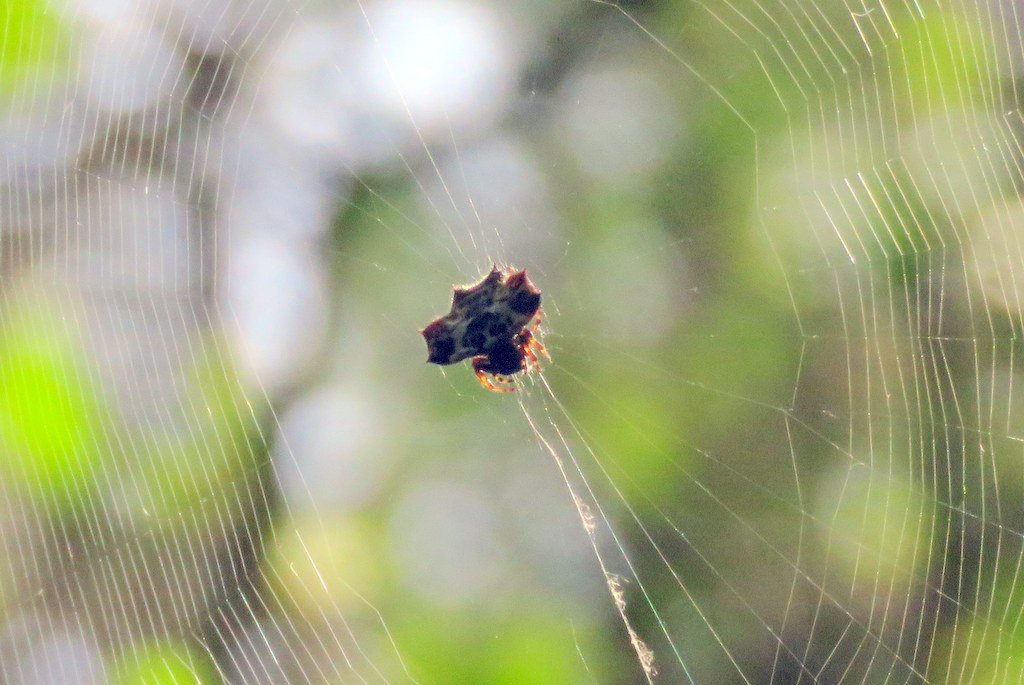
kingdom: Animalia
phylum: Arthropoda
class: Arachnida
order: Araneae
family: Araneidae
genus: Gasteracantha
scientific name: Gasteracantha cancriformis
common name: Orb weavers
